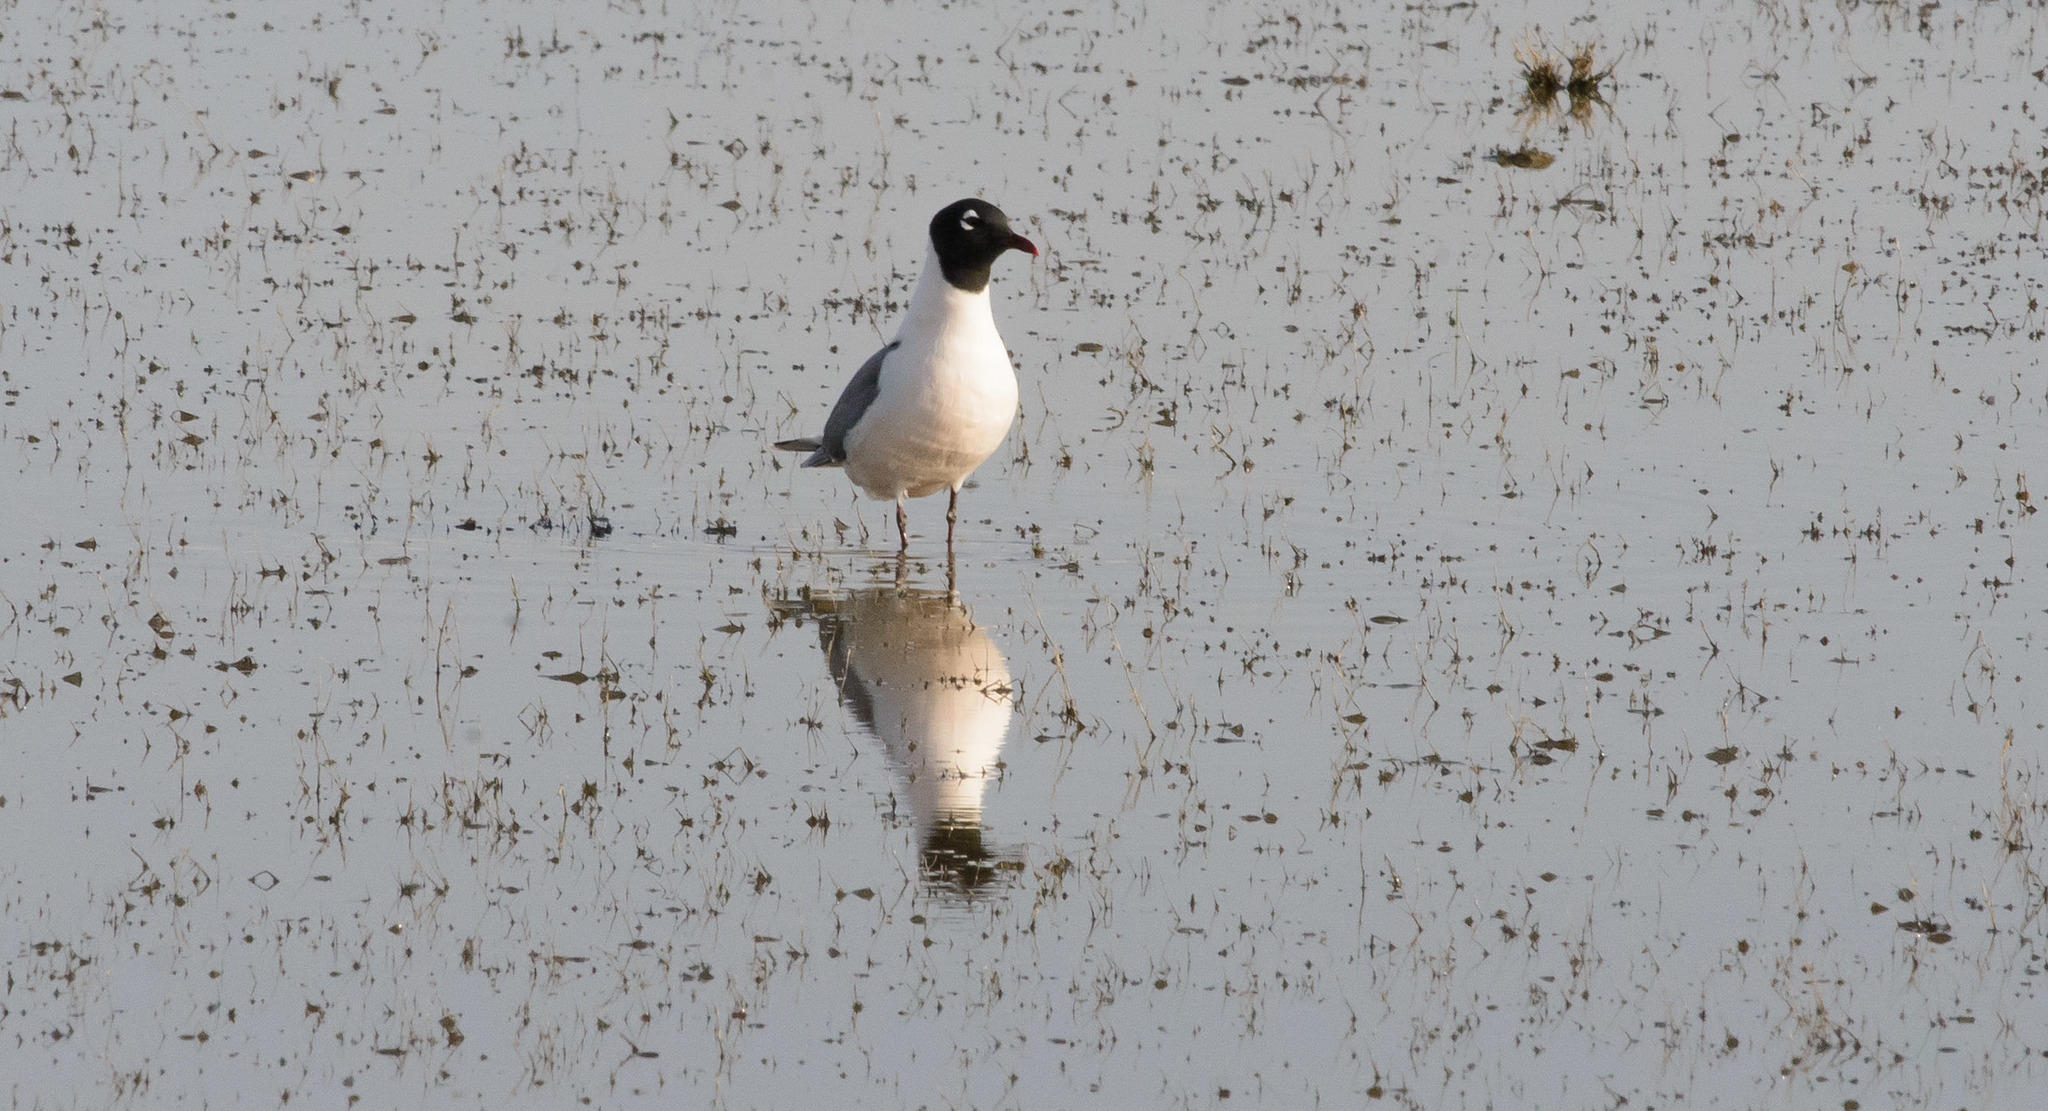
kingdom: Animalia
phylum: Chordata
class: Aves
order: Charadriiformes
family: Laridae
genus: Leucophaeus
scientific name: Leucophaeus pipixcan
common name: Franklin's gull
